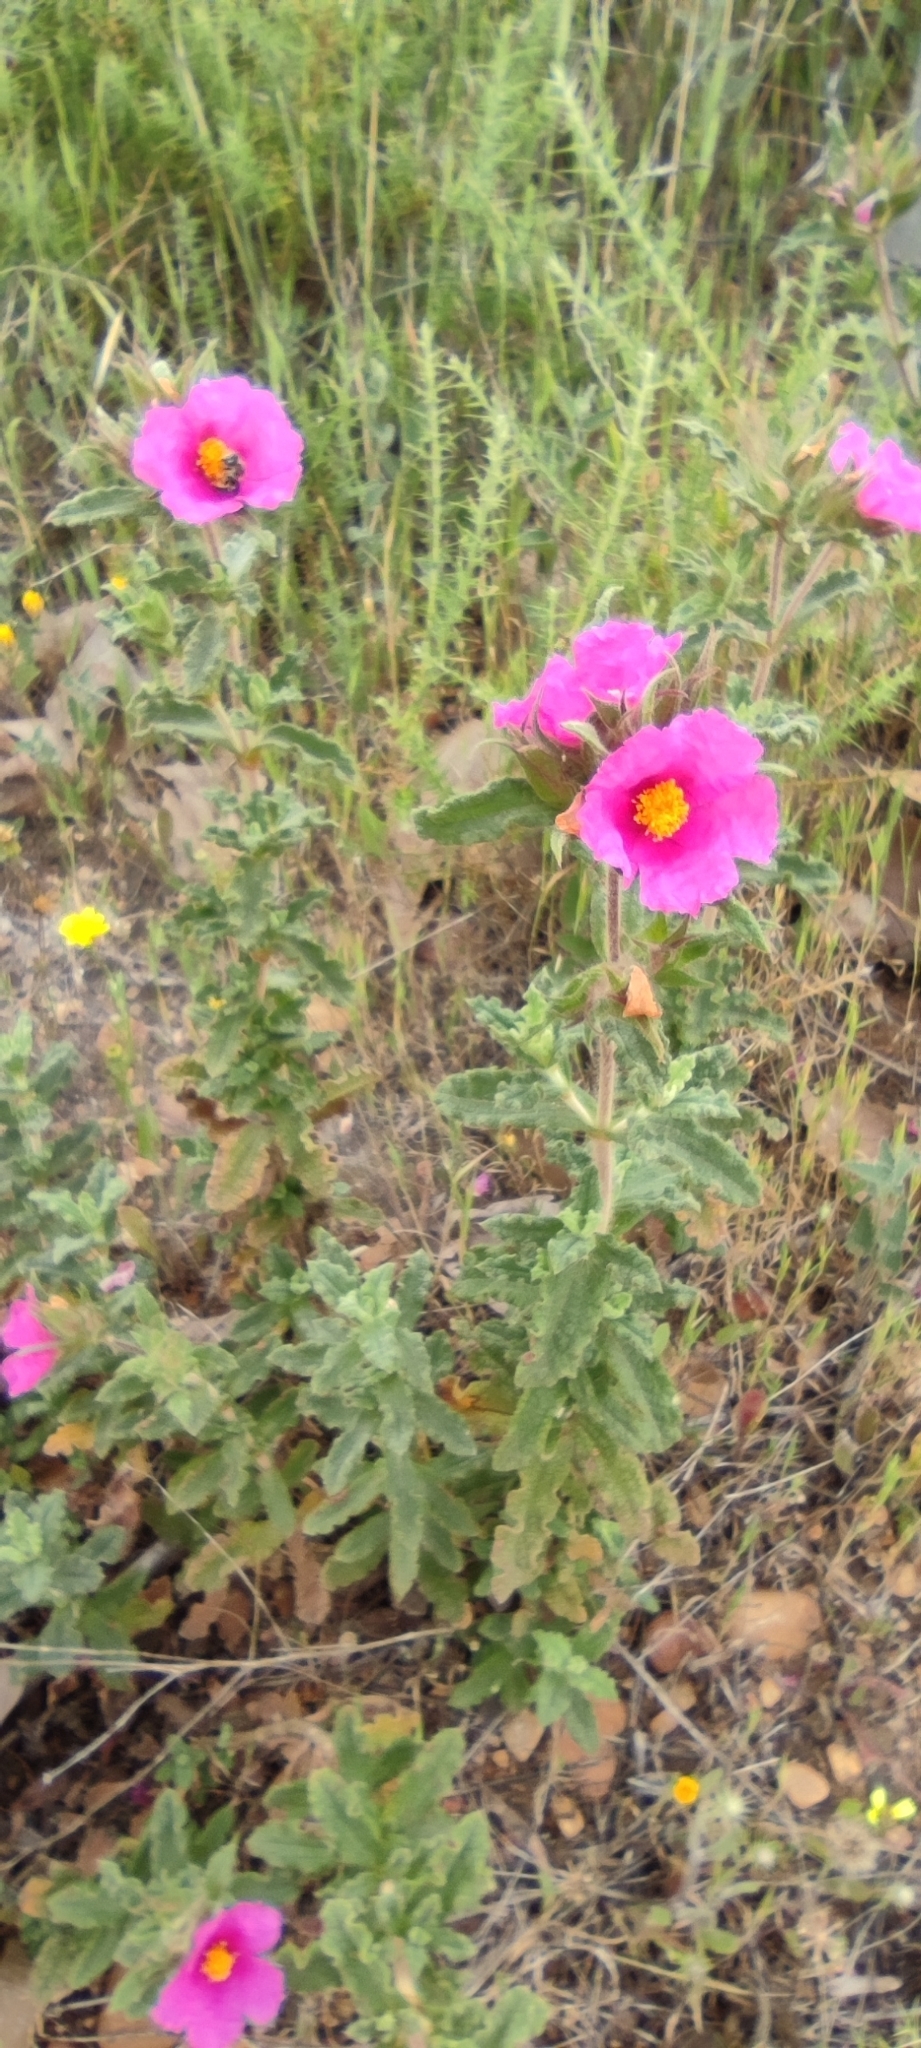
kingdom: Plantae
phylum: Tracheophyta
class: Magnoliopsida
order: Malvales
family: Cistaceae
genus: Cistus
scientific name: Cistus crispus
